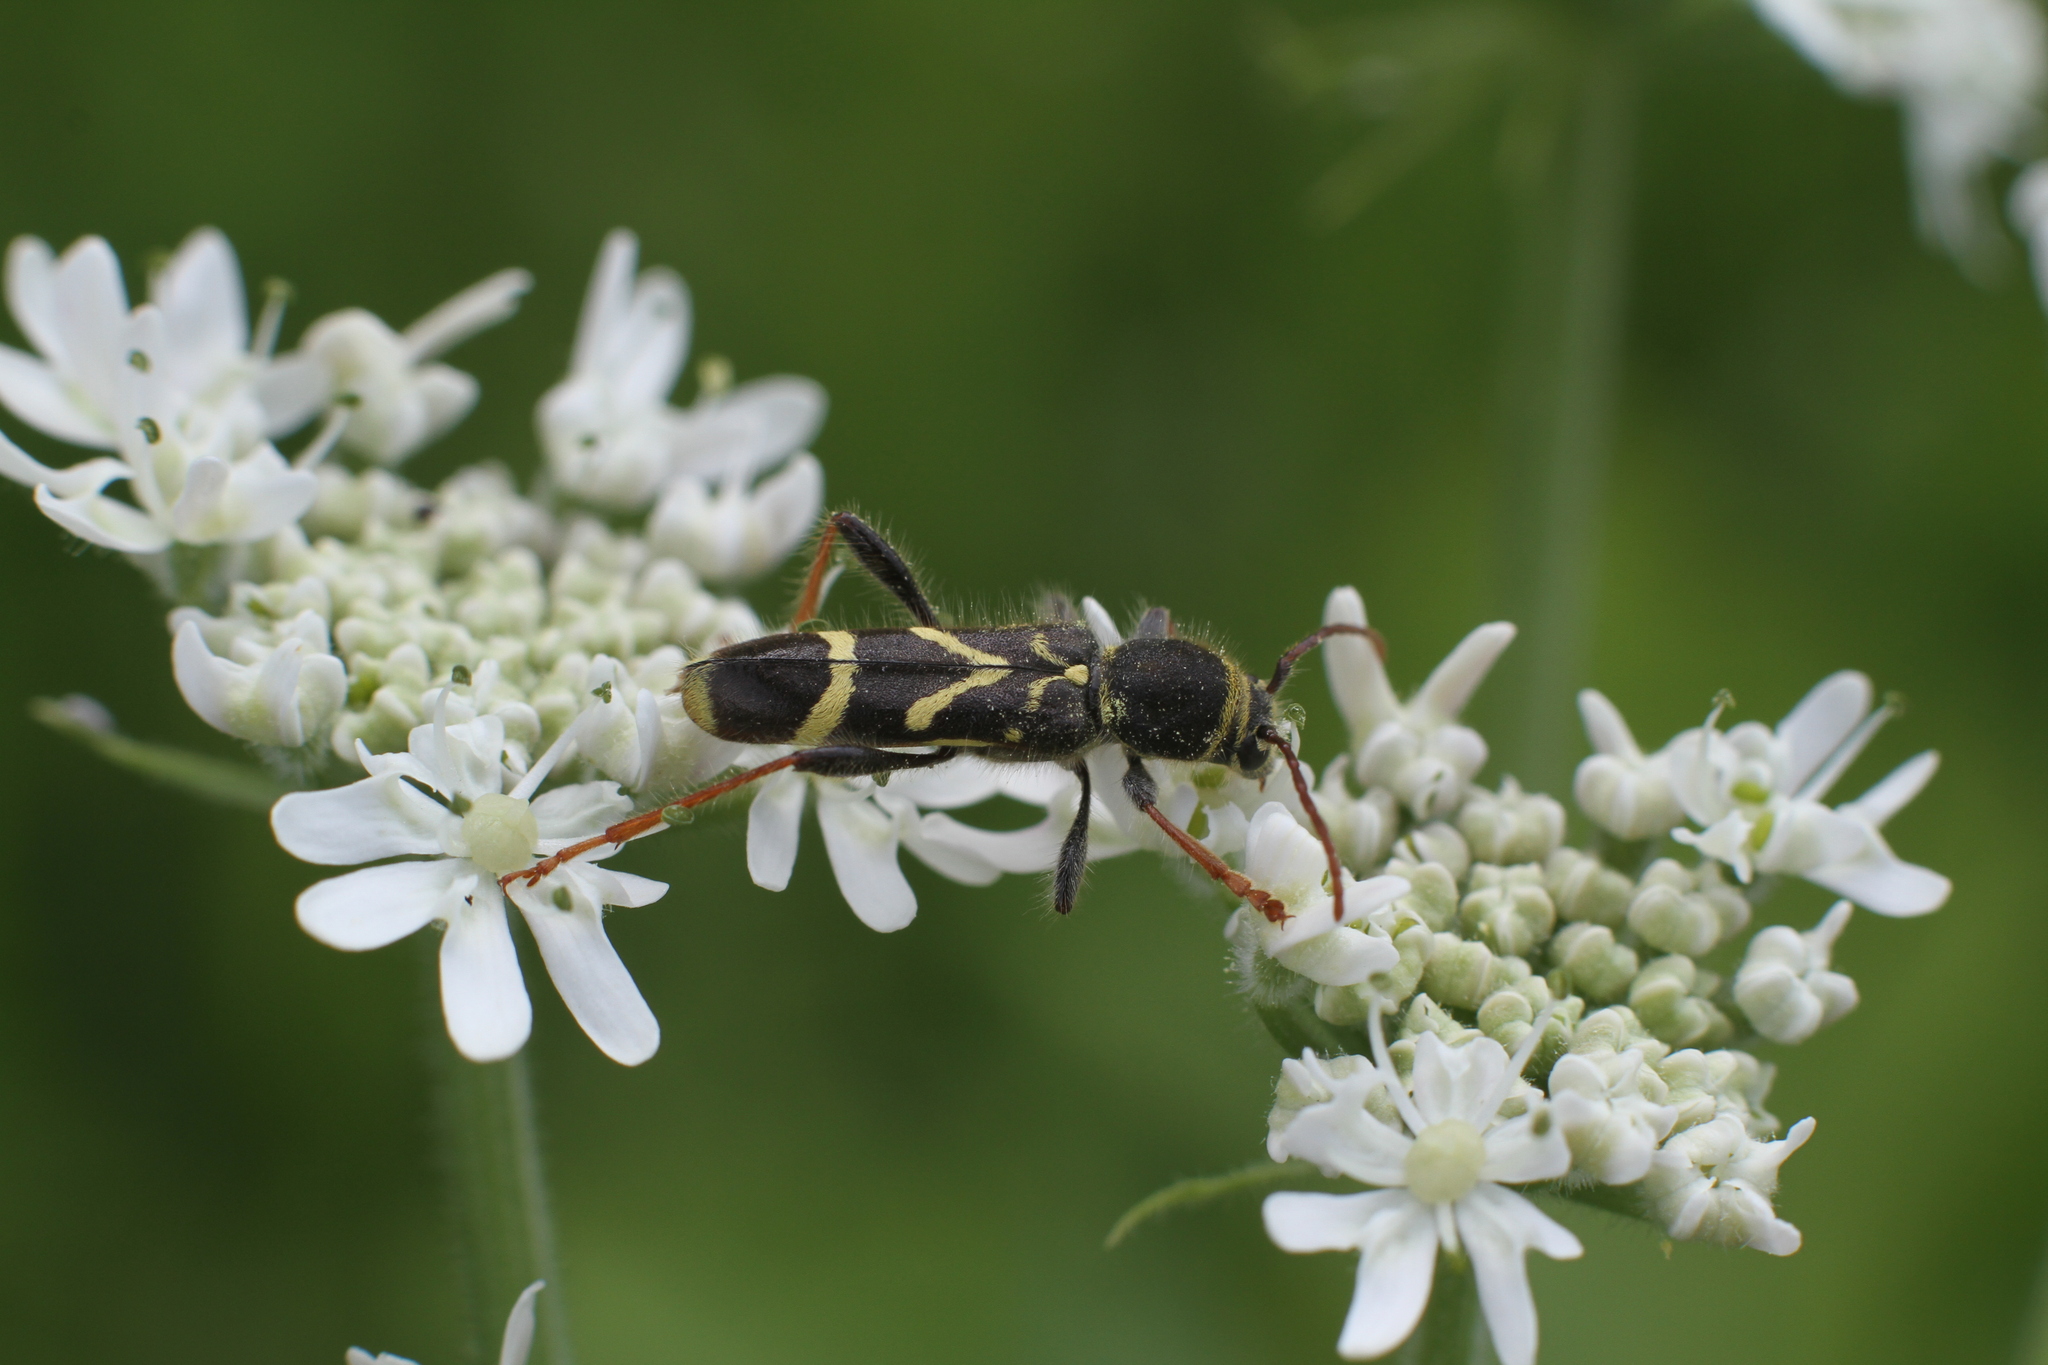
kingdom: Animalia
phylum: Arthropoda
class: Insecta
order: Coleoptera
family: Cerambycidae
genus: Cyrtoclytus
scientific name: Cyrtoclytus capra
